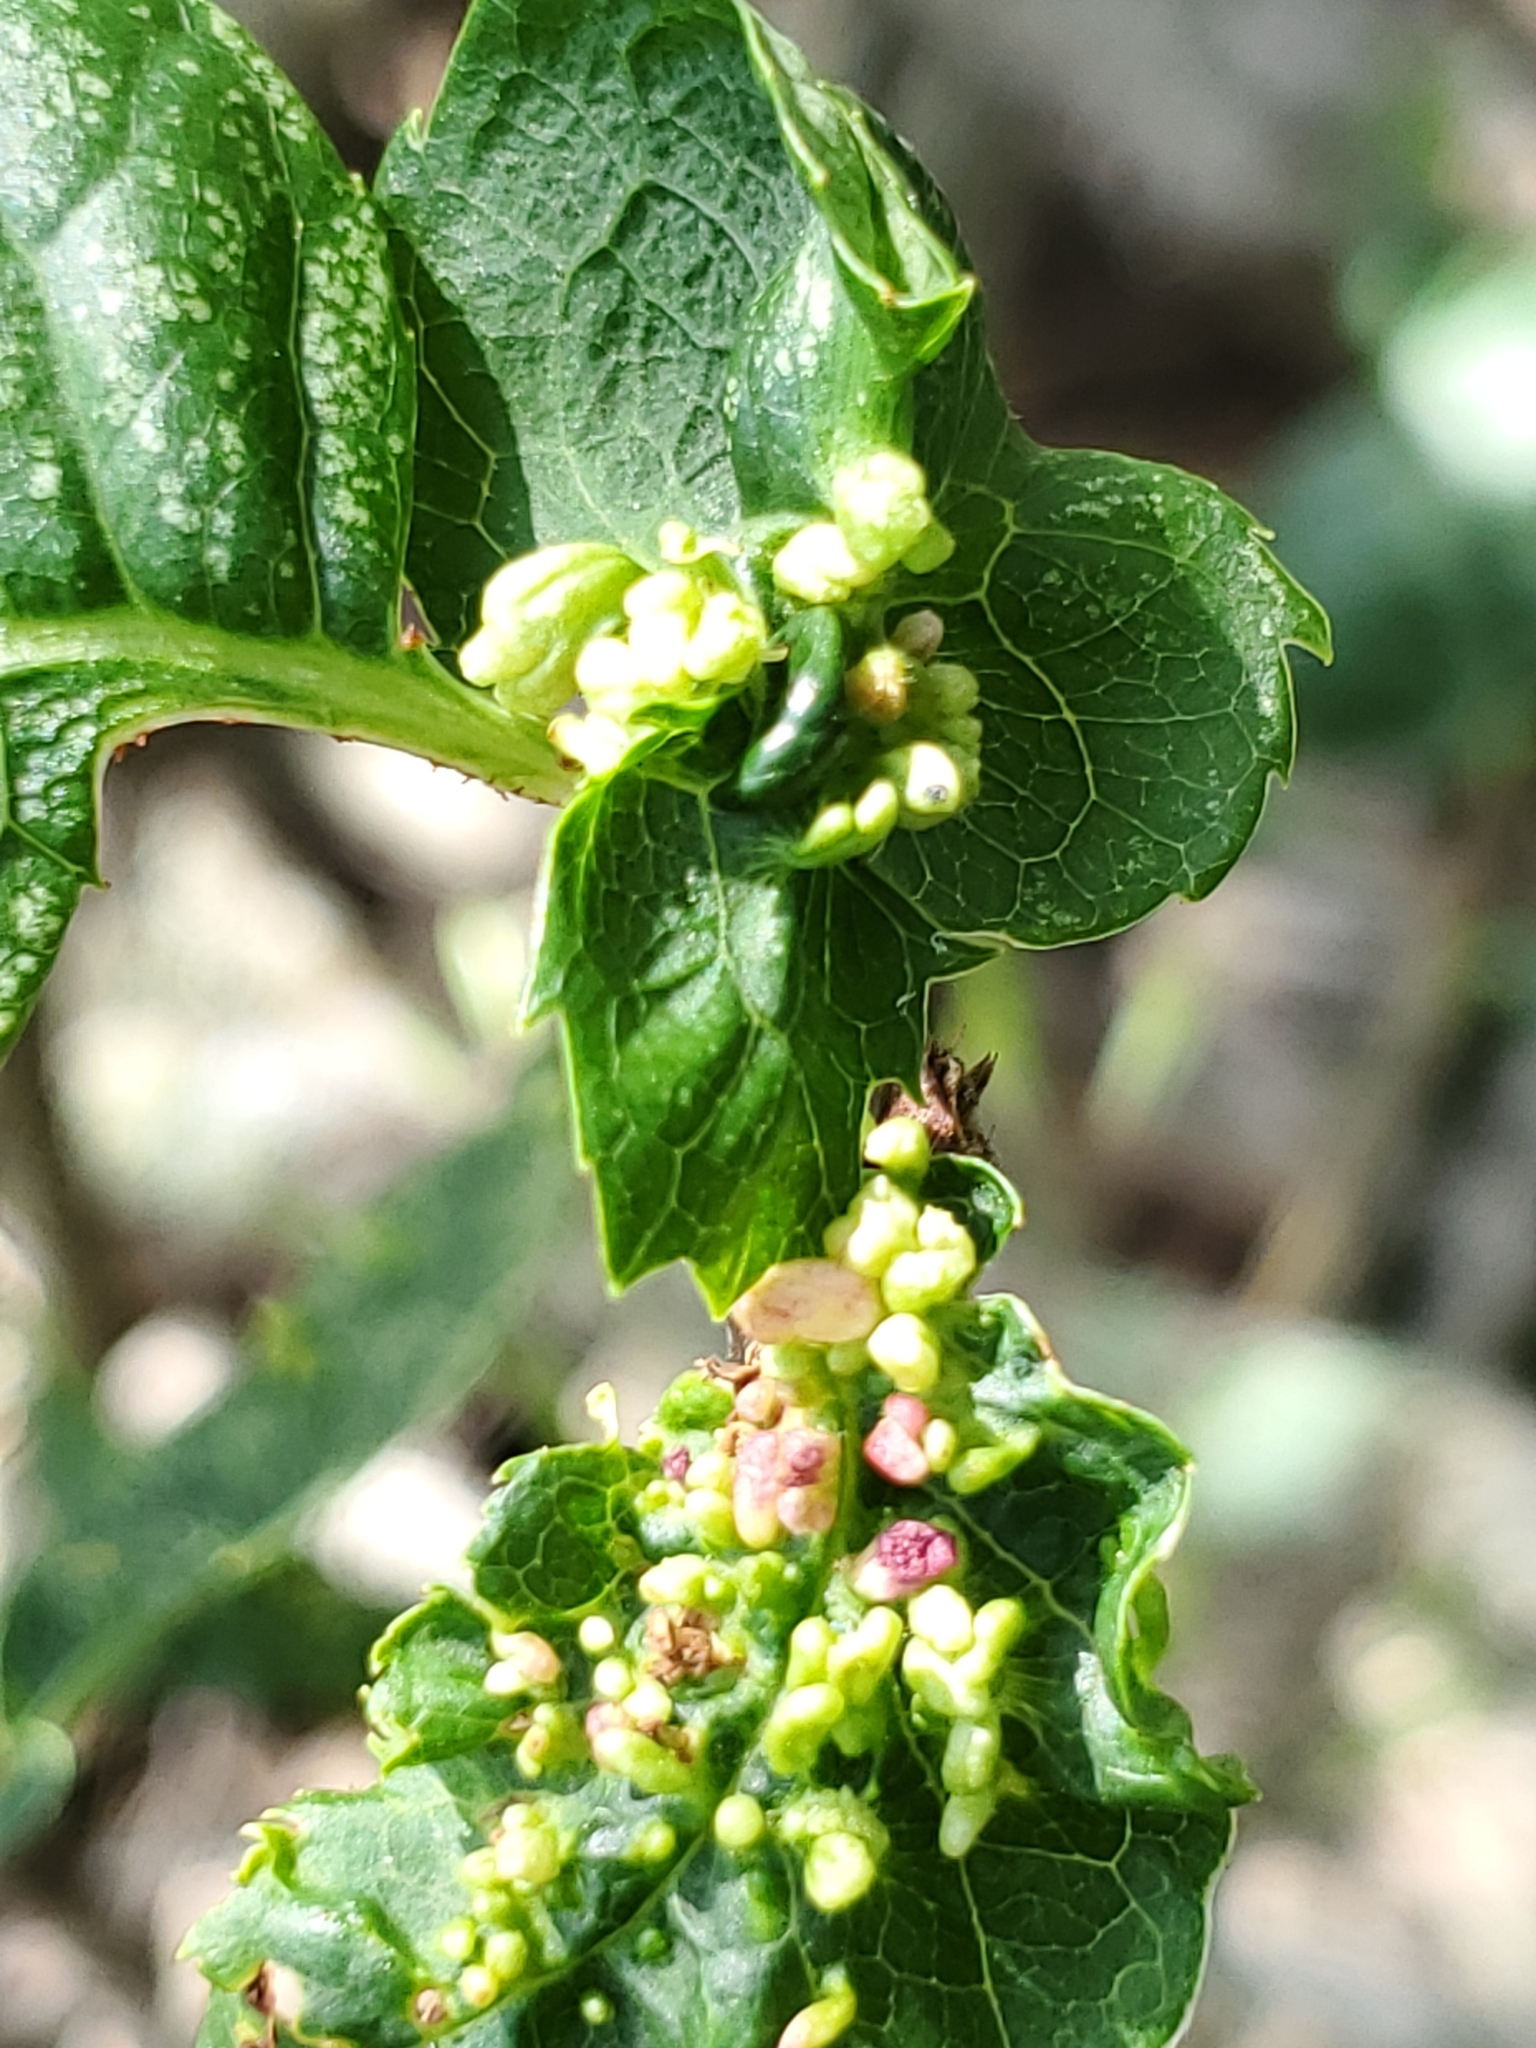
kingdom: Animalia
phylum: Arthropoda
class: Arachnida
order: Trombidiformes
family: Eriophyidae
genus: Eriophyes
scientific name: Eriophyes emarginatae
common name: Plum leaf gall mite
